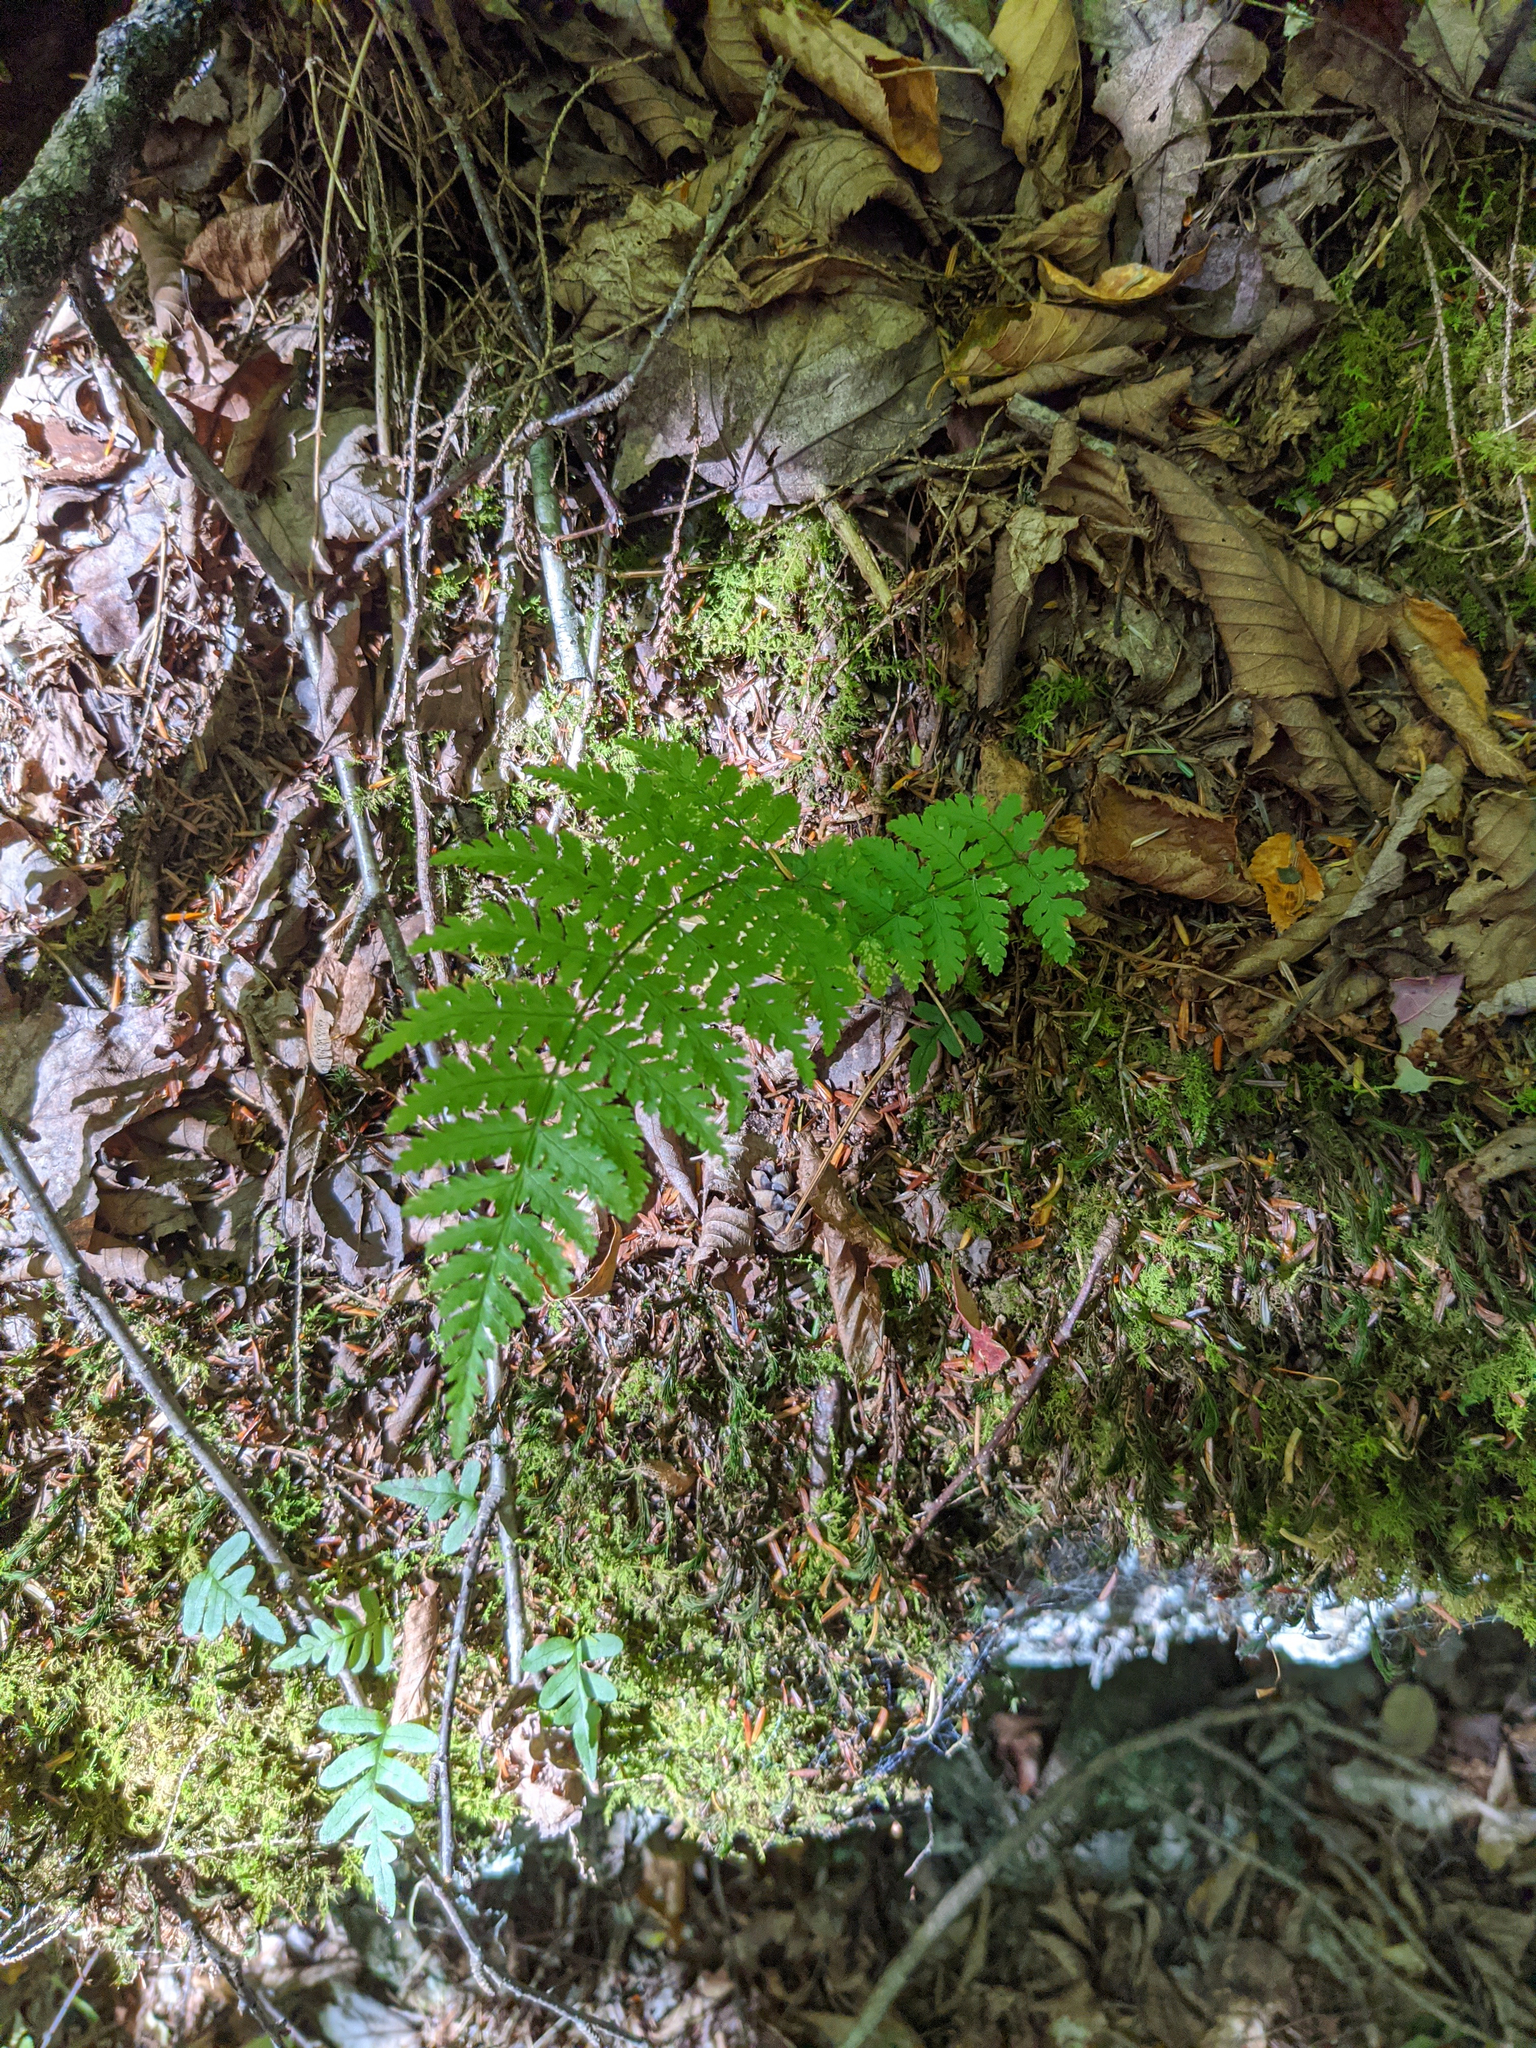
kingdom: Plantae
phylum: Tracheophyta
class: Polypodiopsida
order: Polypodiales
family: Dryopteridaceae
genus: Dryopteris
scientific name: Dryopteris intermedia
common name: Evergreen wood fern
